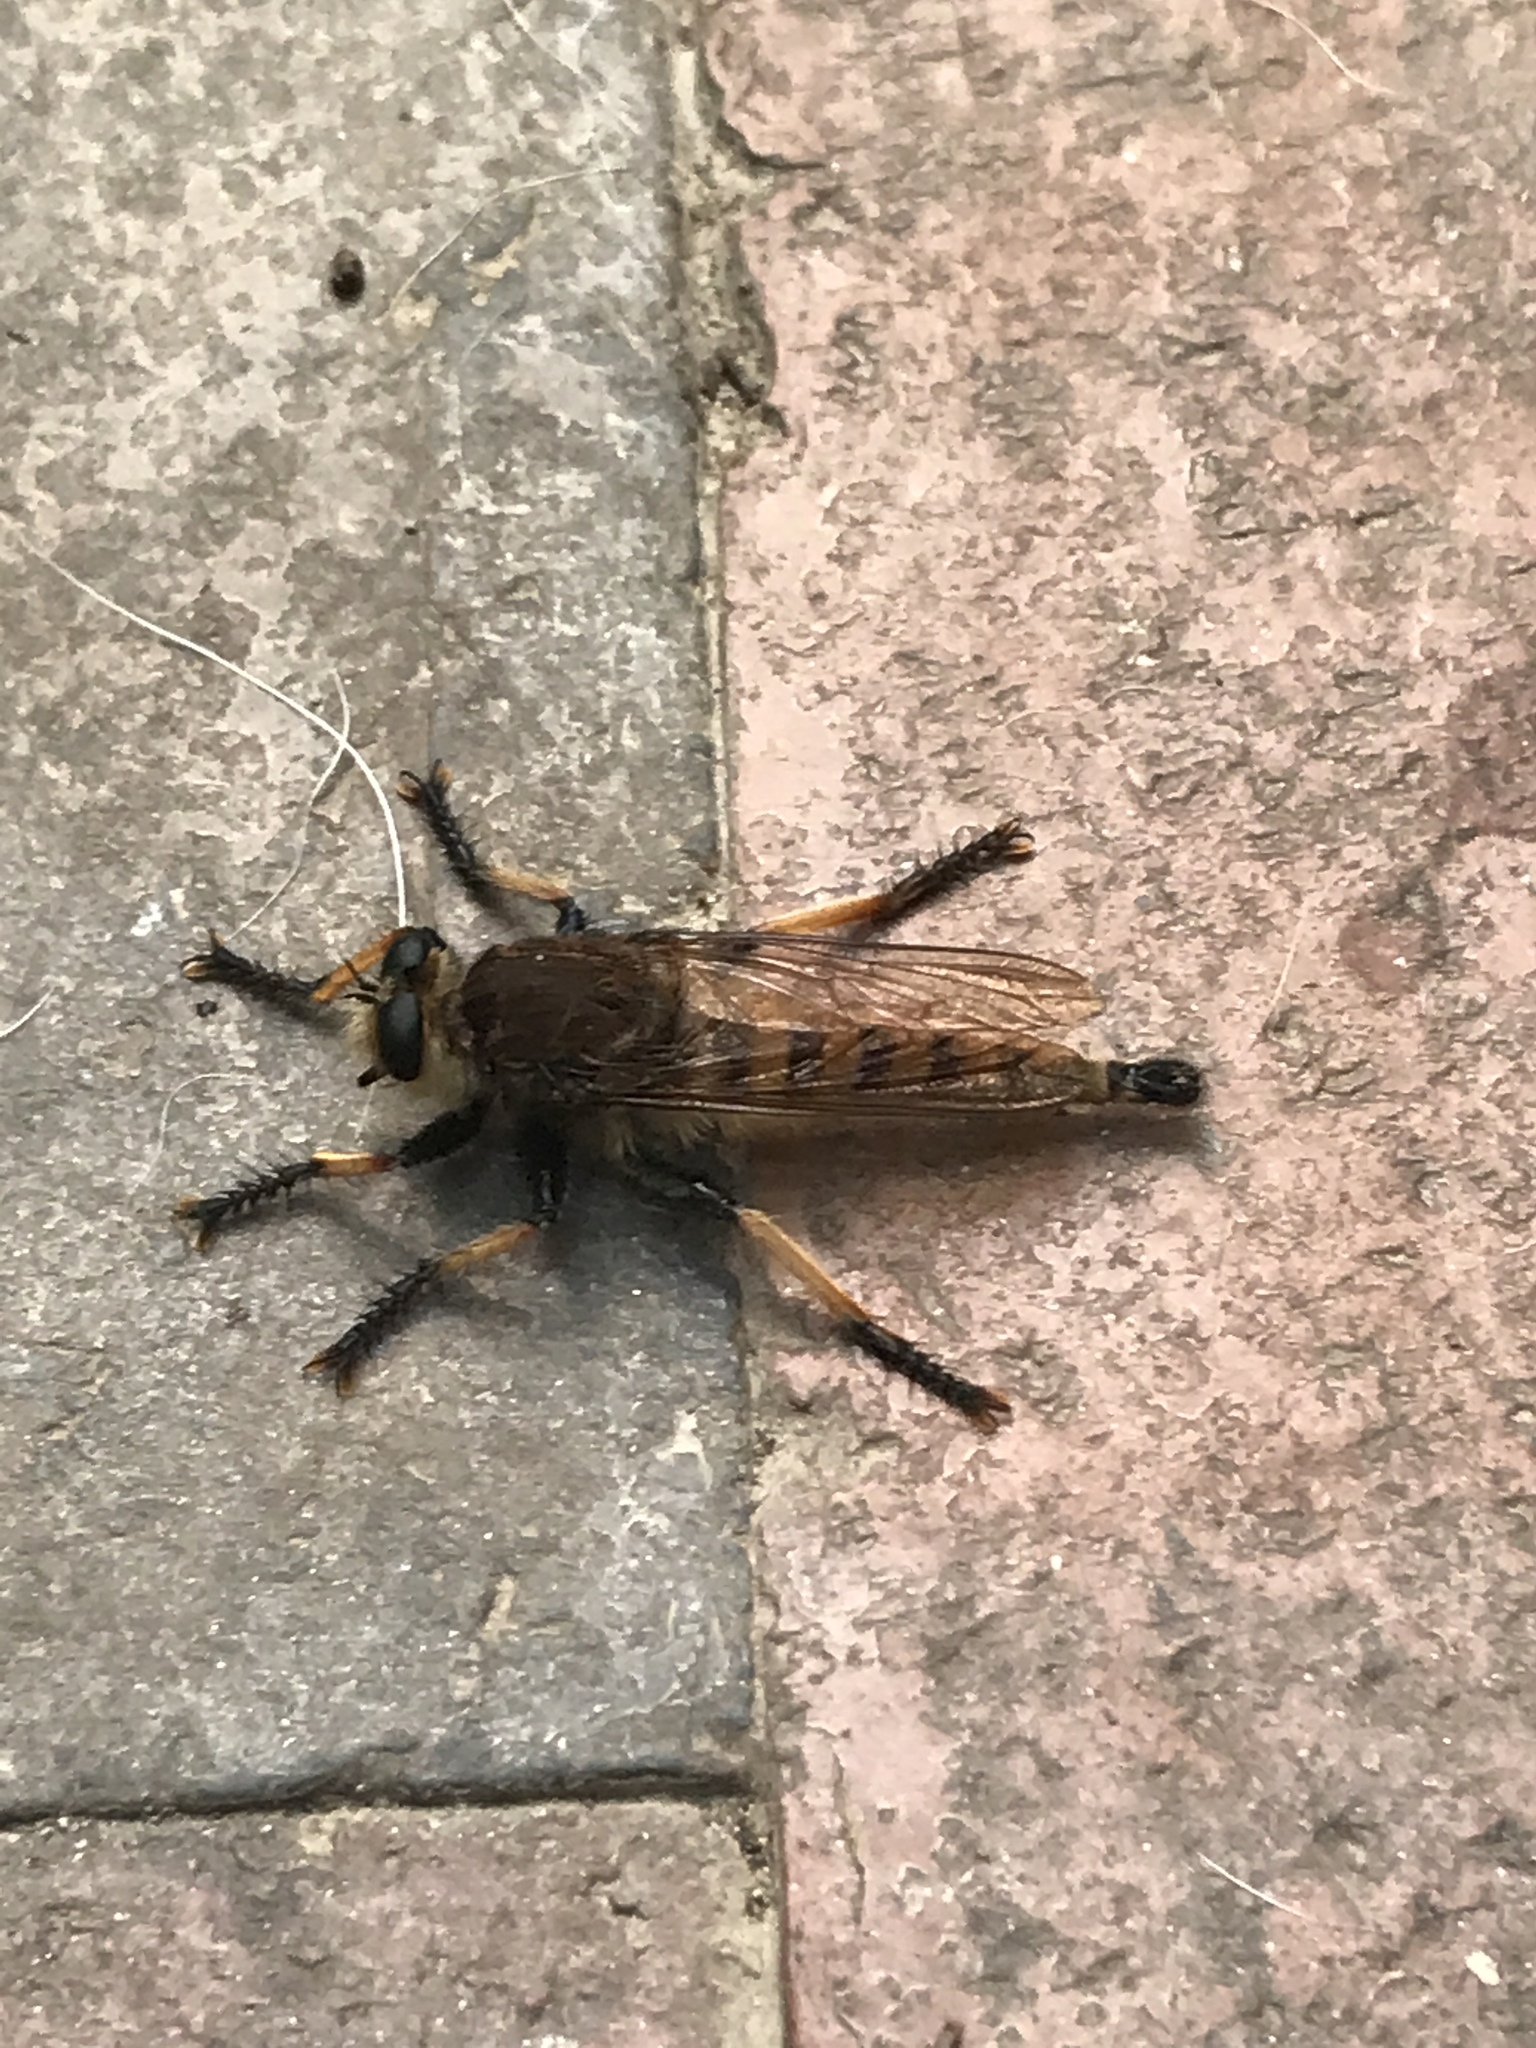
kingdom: Animalia
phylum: Arthropoda
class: Insecta
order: Diptera
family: Asilidae
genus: Promachus
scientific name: Promachus rufipes
